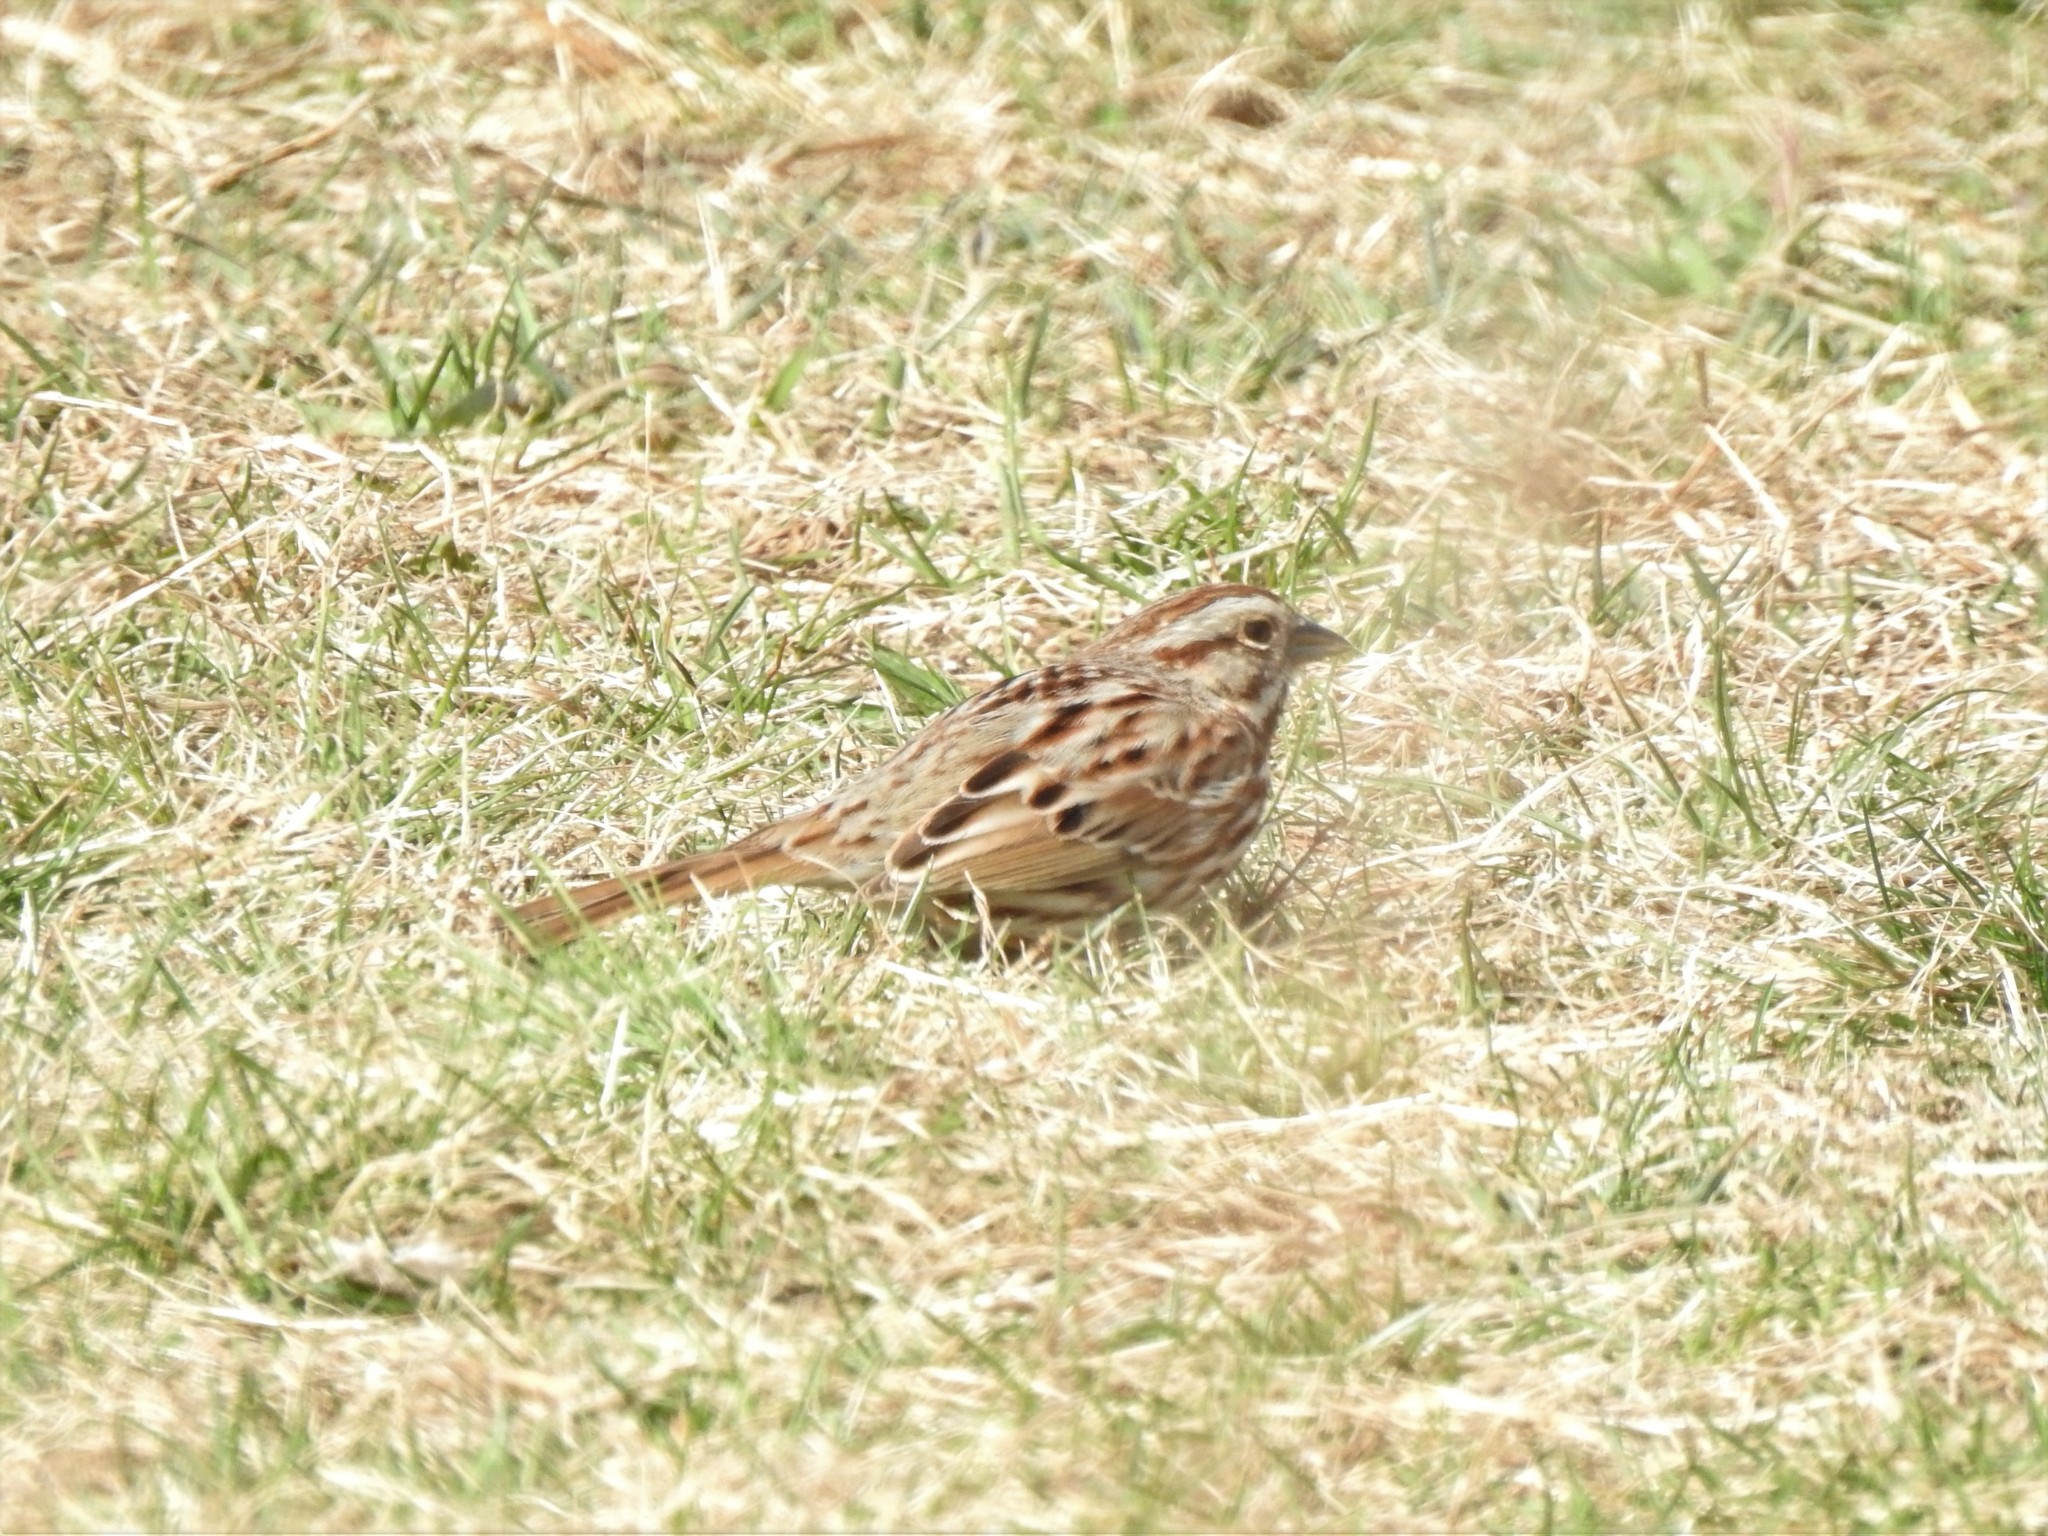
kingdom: Animalia
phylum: Chordata
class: Aves
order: Passeriformes
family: Passerellidae
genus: Melospiza
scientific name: Melospiza melodia
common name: Song sparrow
